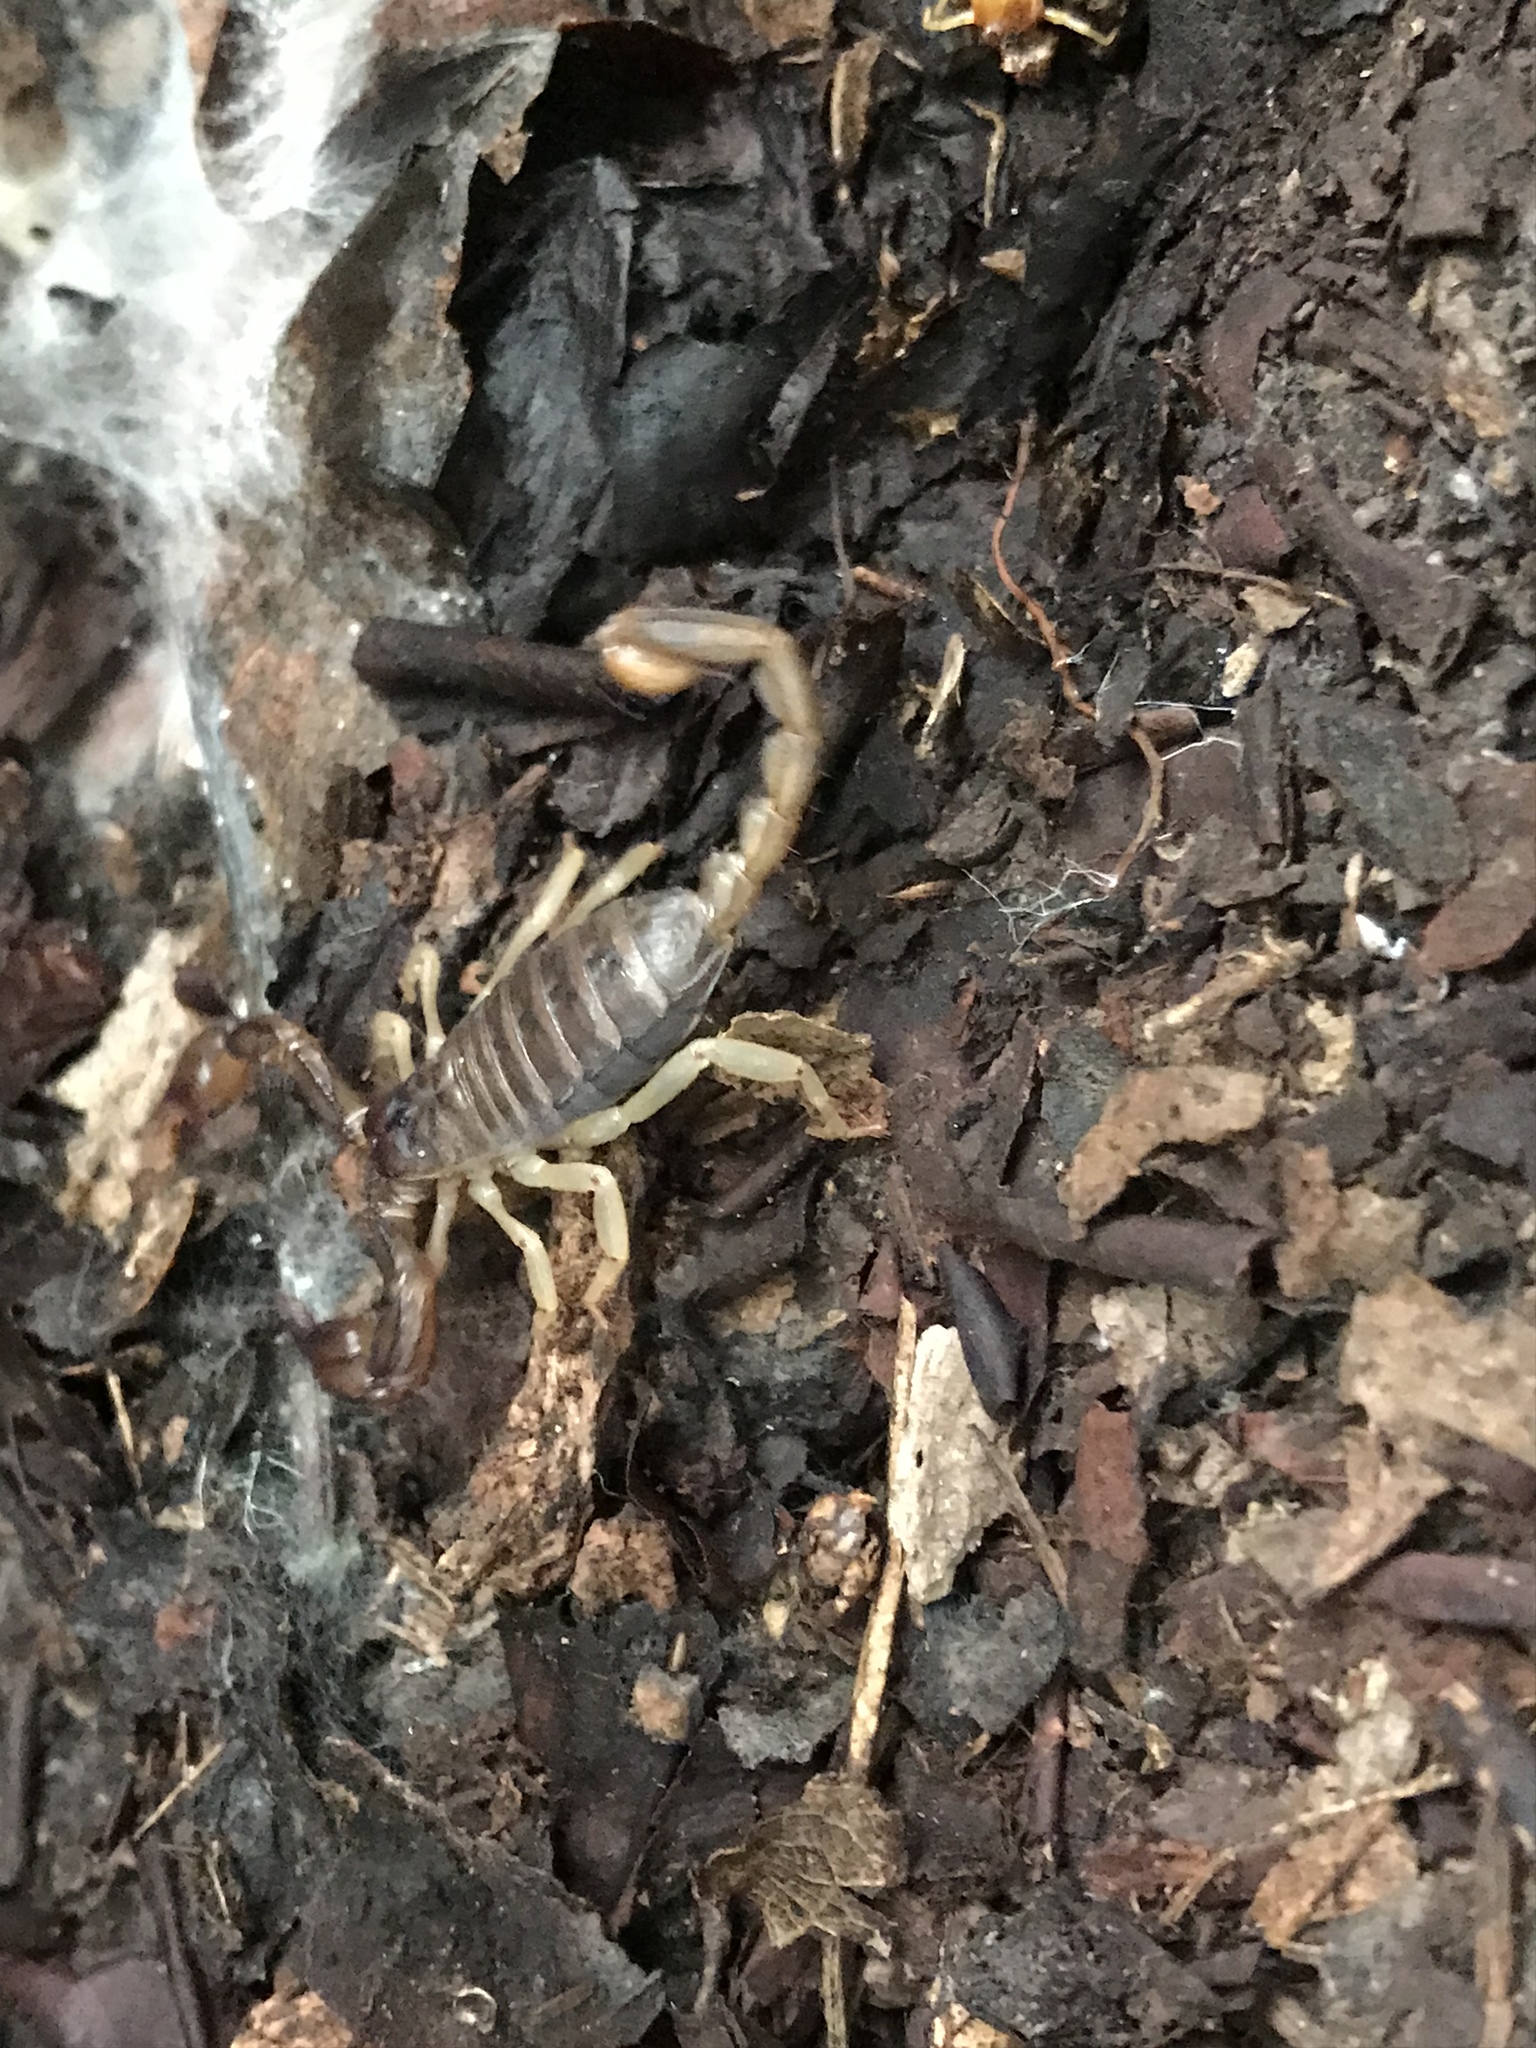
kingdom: Animalia
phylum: Arthropoda
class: Arachnida
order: Scorpiones
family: Chactidae
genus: Uroctonus
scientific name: Uroctonus mordax
